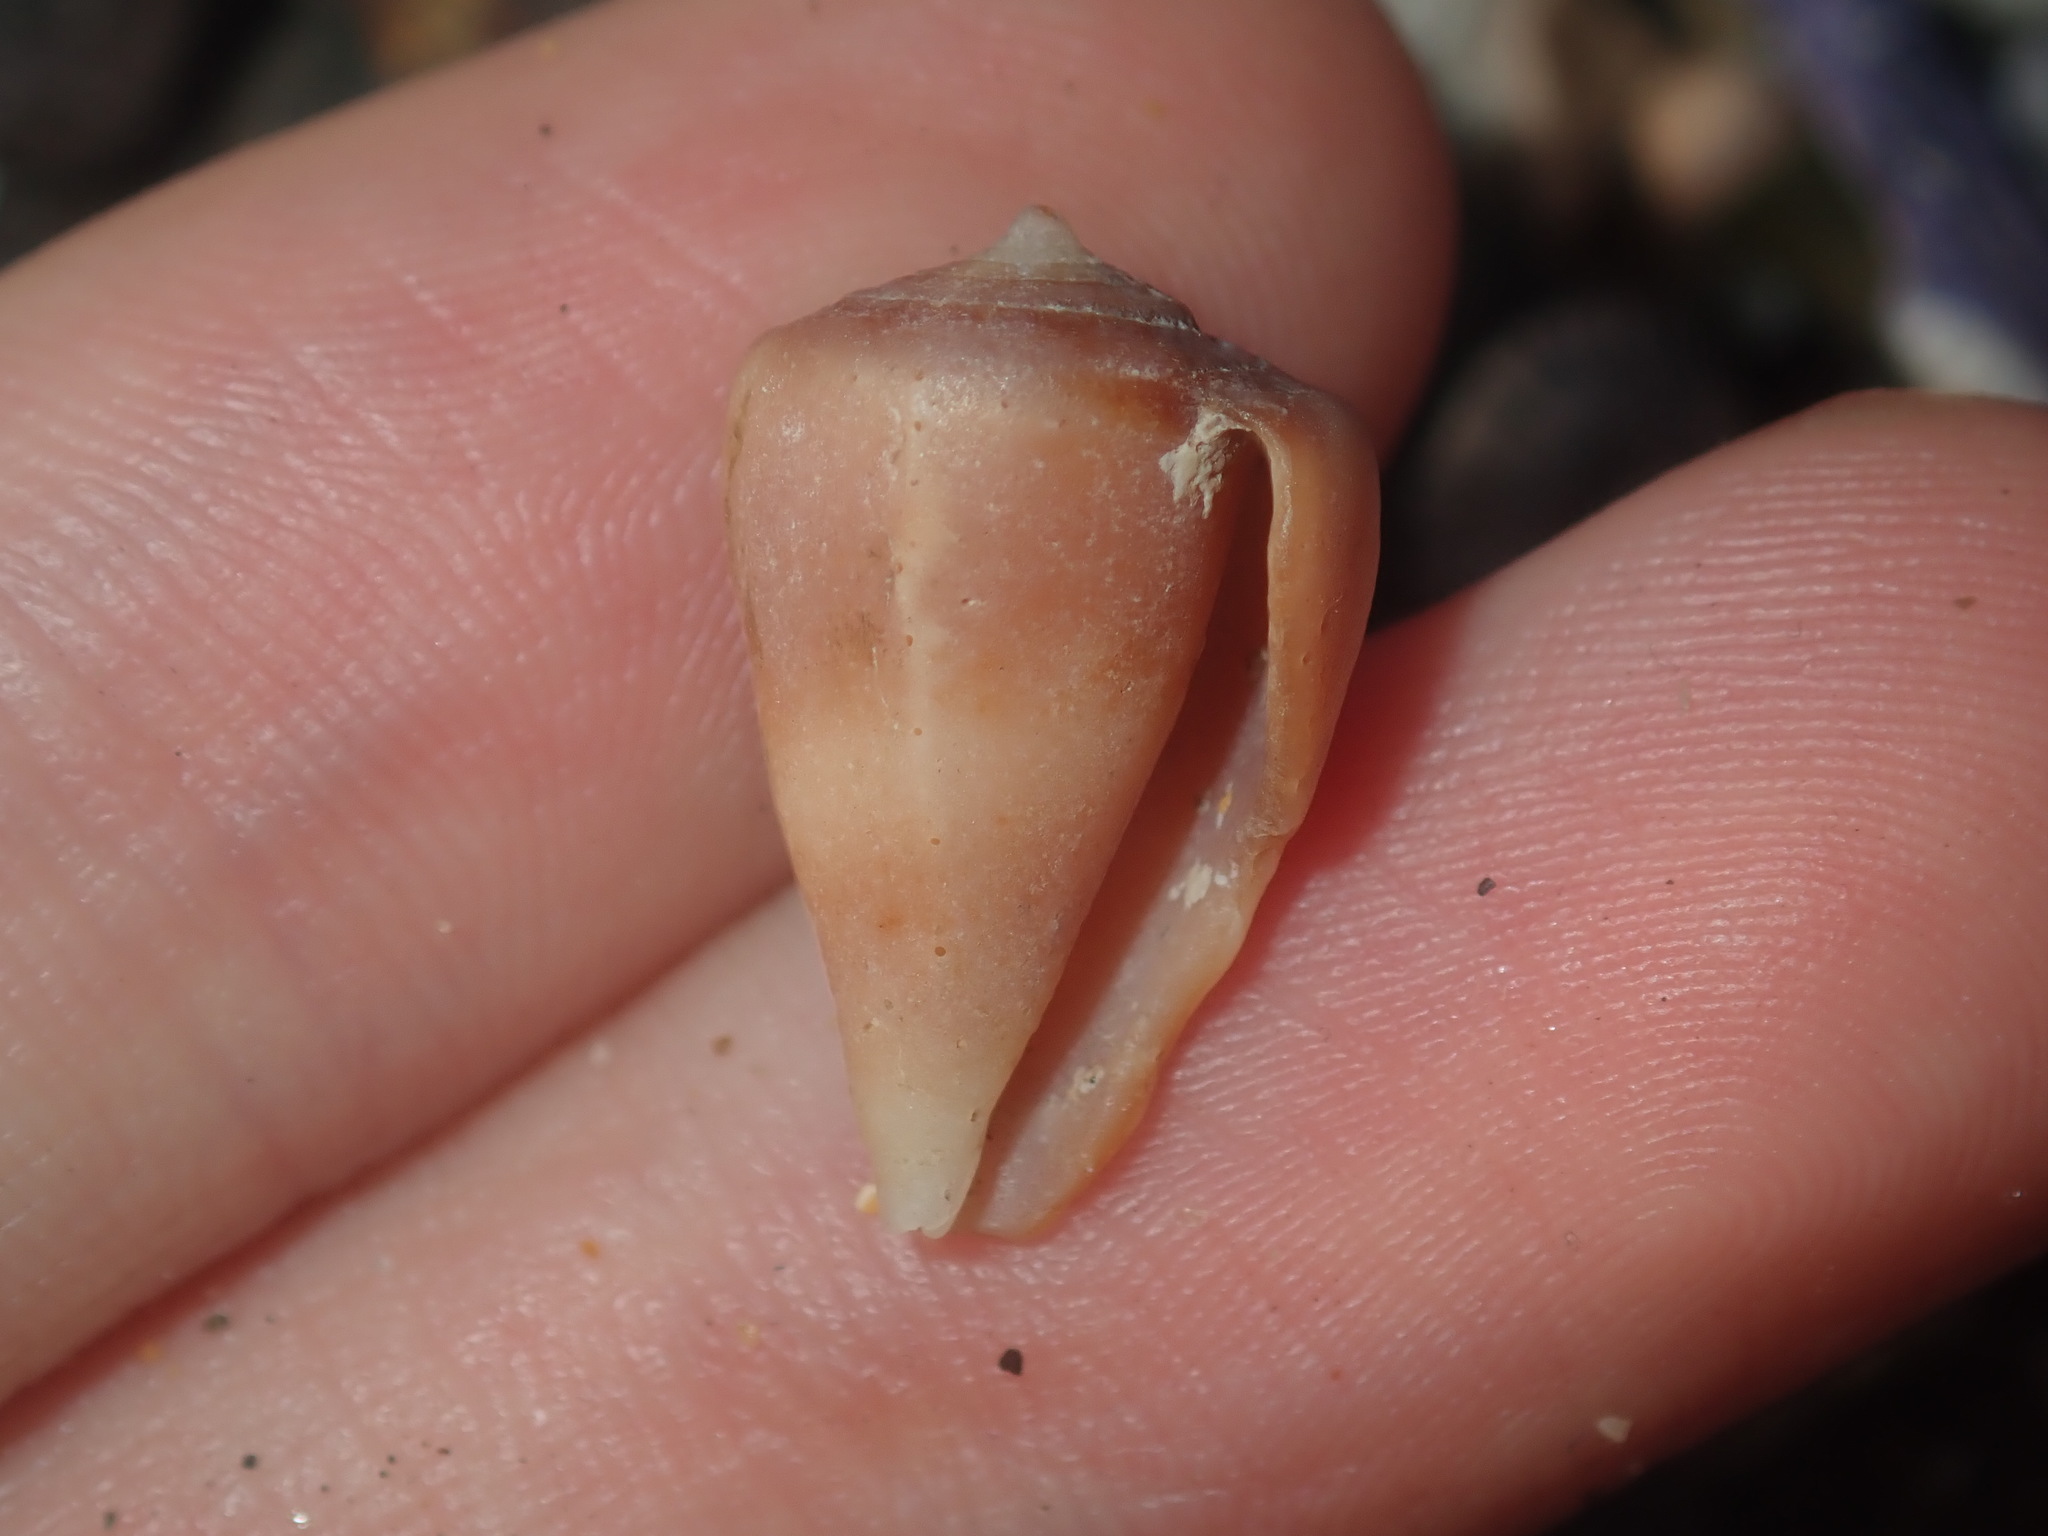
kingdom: Animalia
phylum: Mollusca
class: Gastropoda
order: Neogastropoda
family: Conidae
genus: Conus
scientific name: Conus papilliferus
